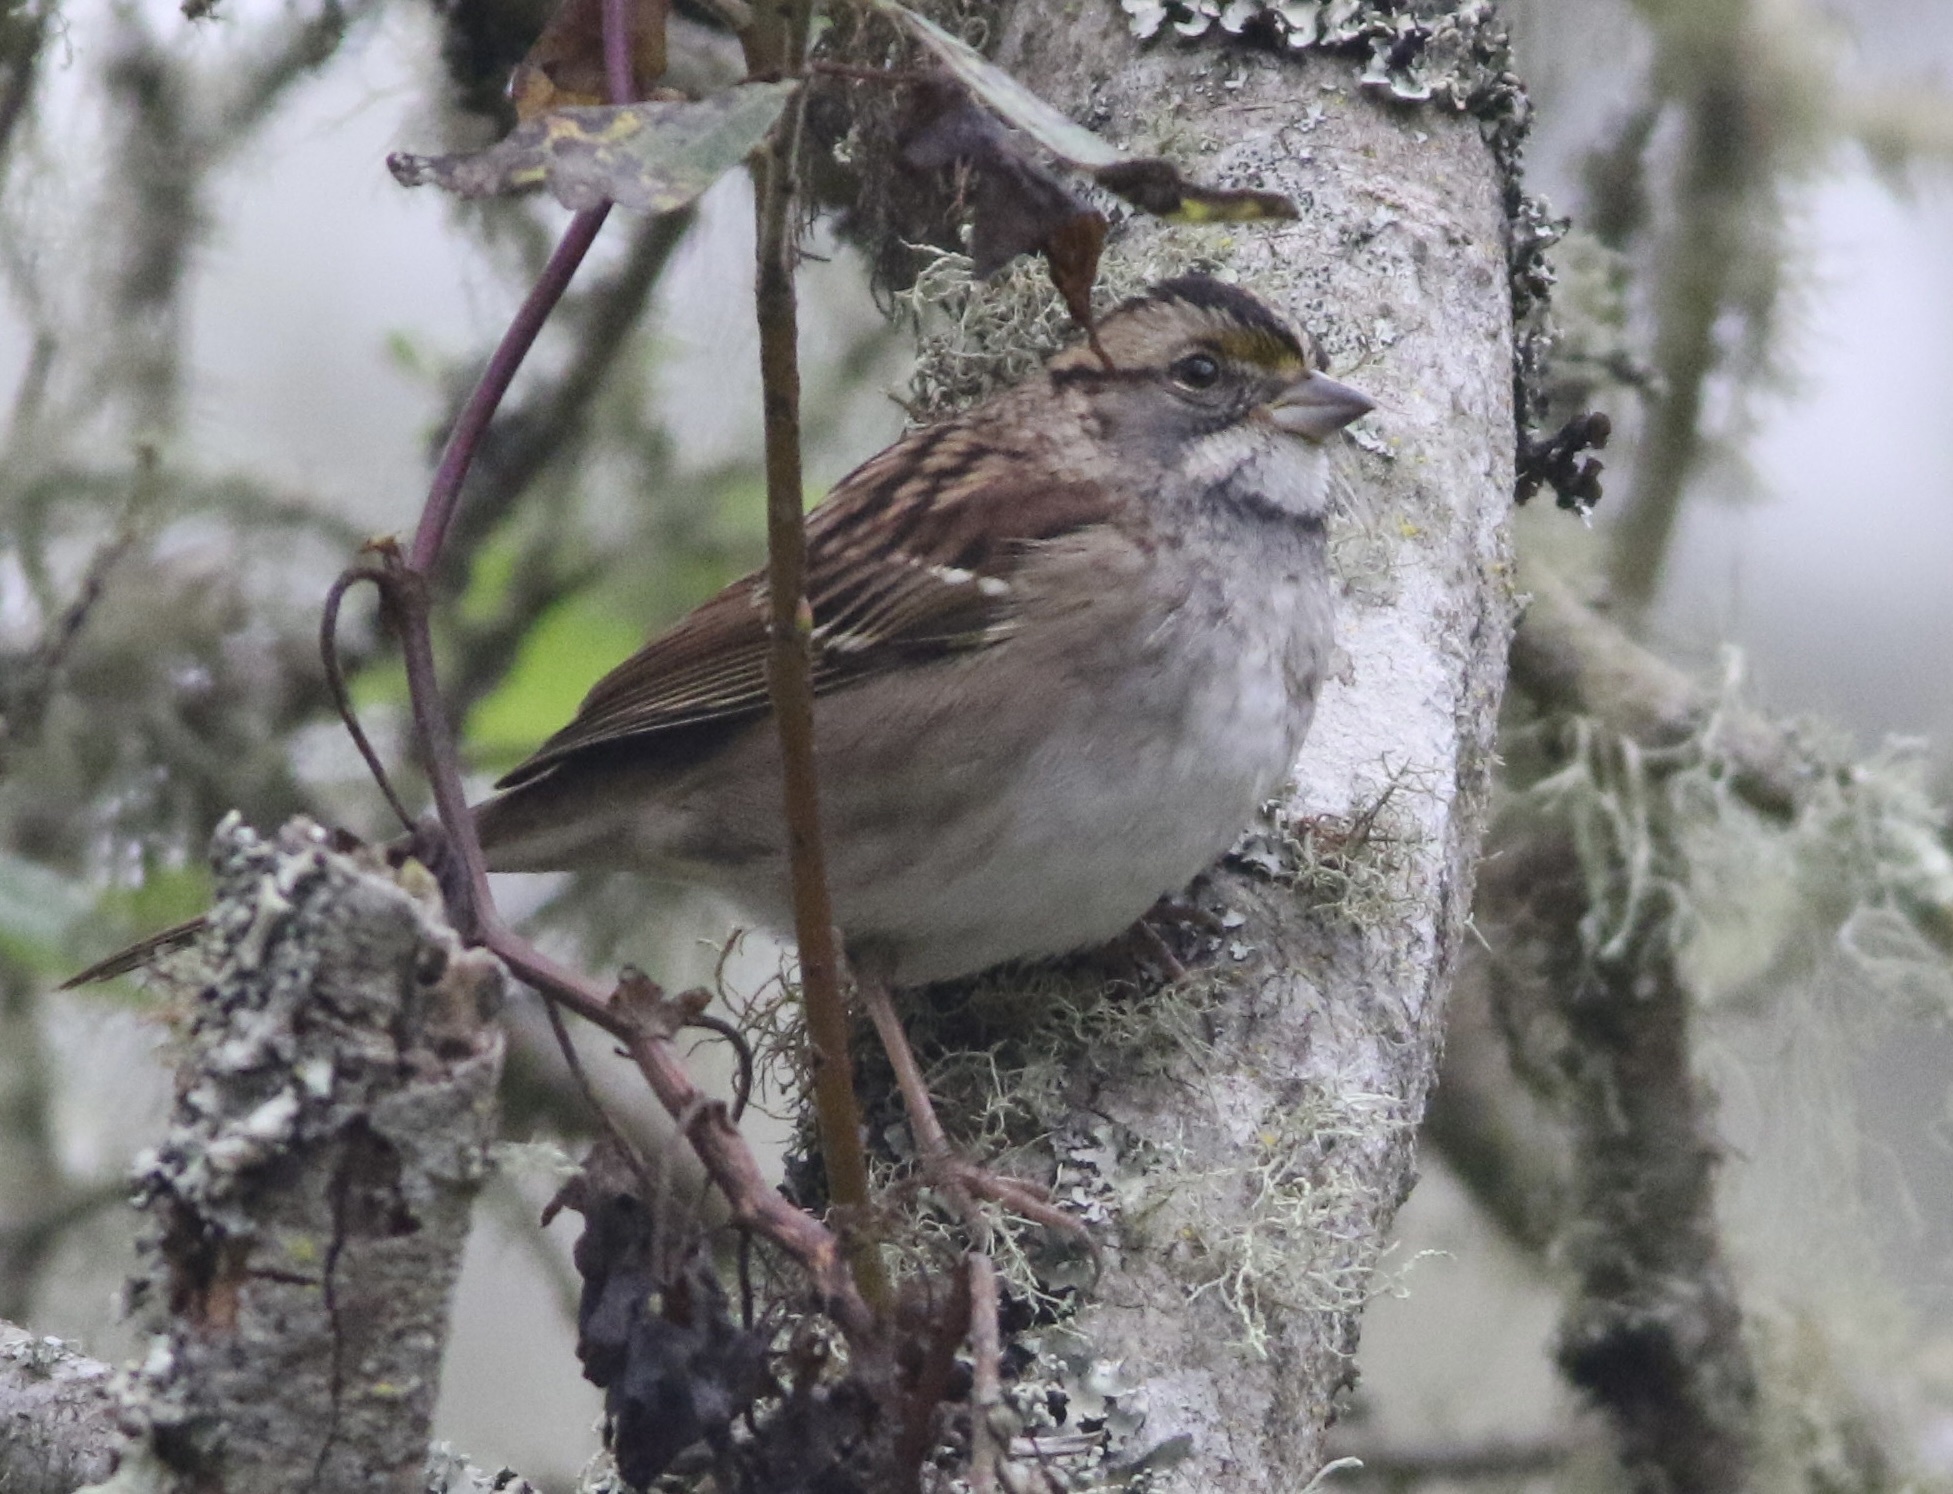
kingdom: Animalia
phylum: Chordata
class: Aves
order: Passeriformes
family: Passerellidae
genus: Zonotrichia
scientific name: Zonotrichia albicollis
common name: White-throated sparrow
